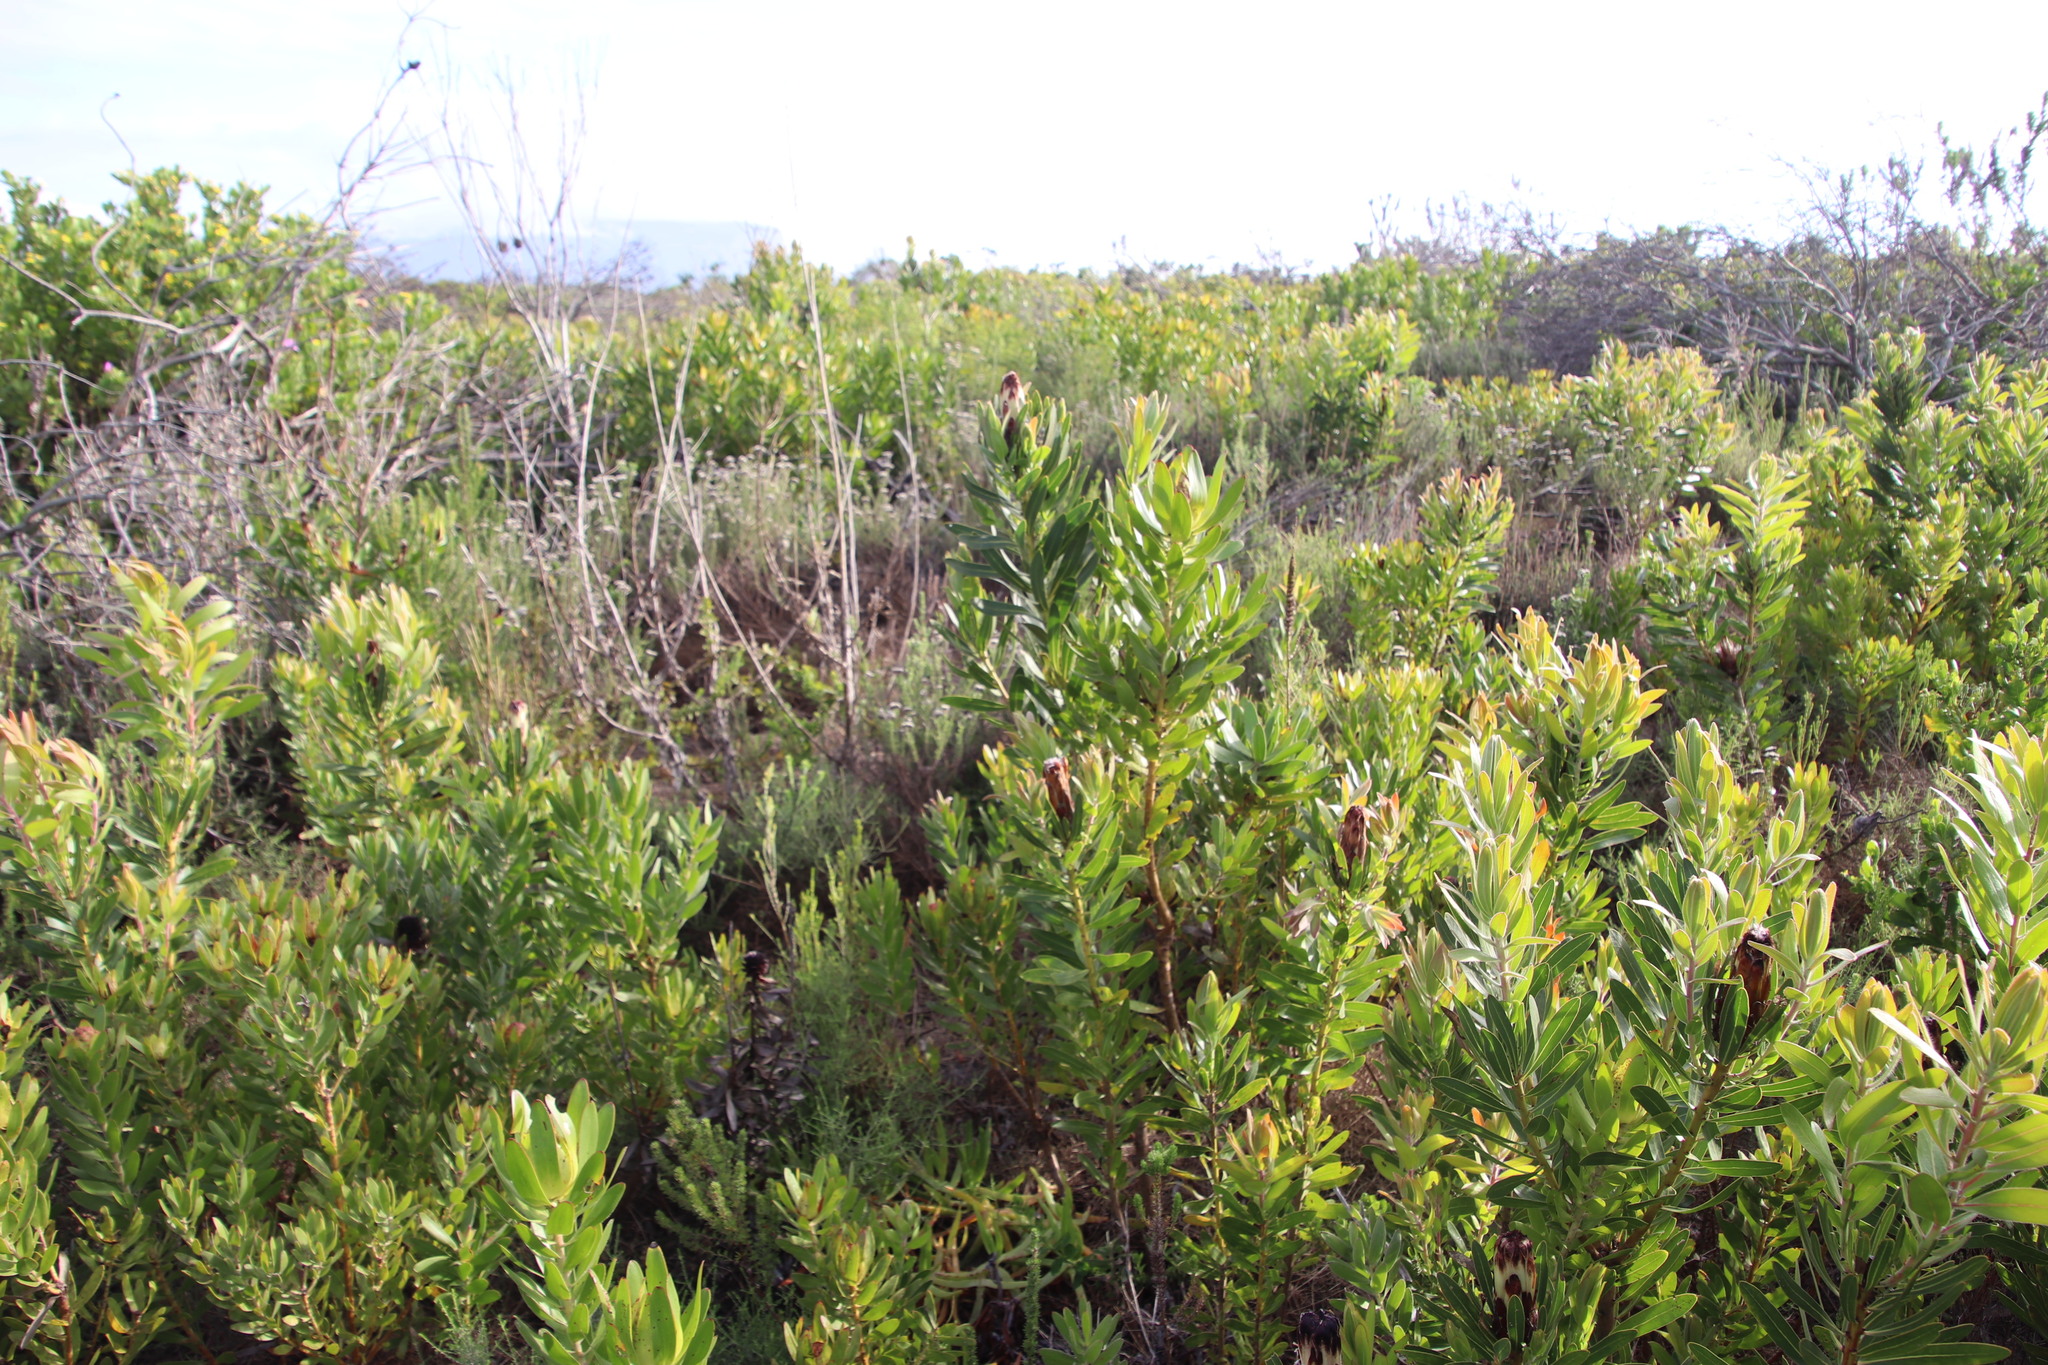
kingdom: Plantae
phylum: Tracheophyta
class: Magnoliopsida
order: Proteales
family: Proteaceae
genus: Protea
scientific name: Protea lepidocarpodendron
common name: Black-bearded protea
